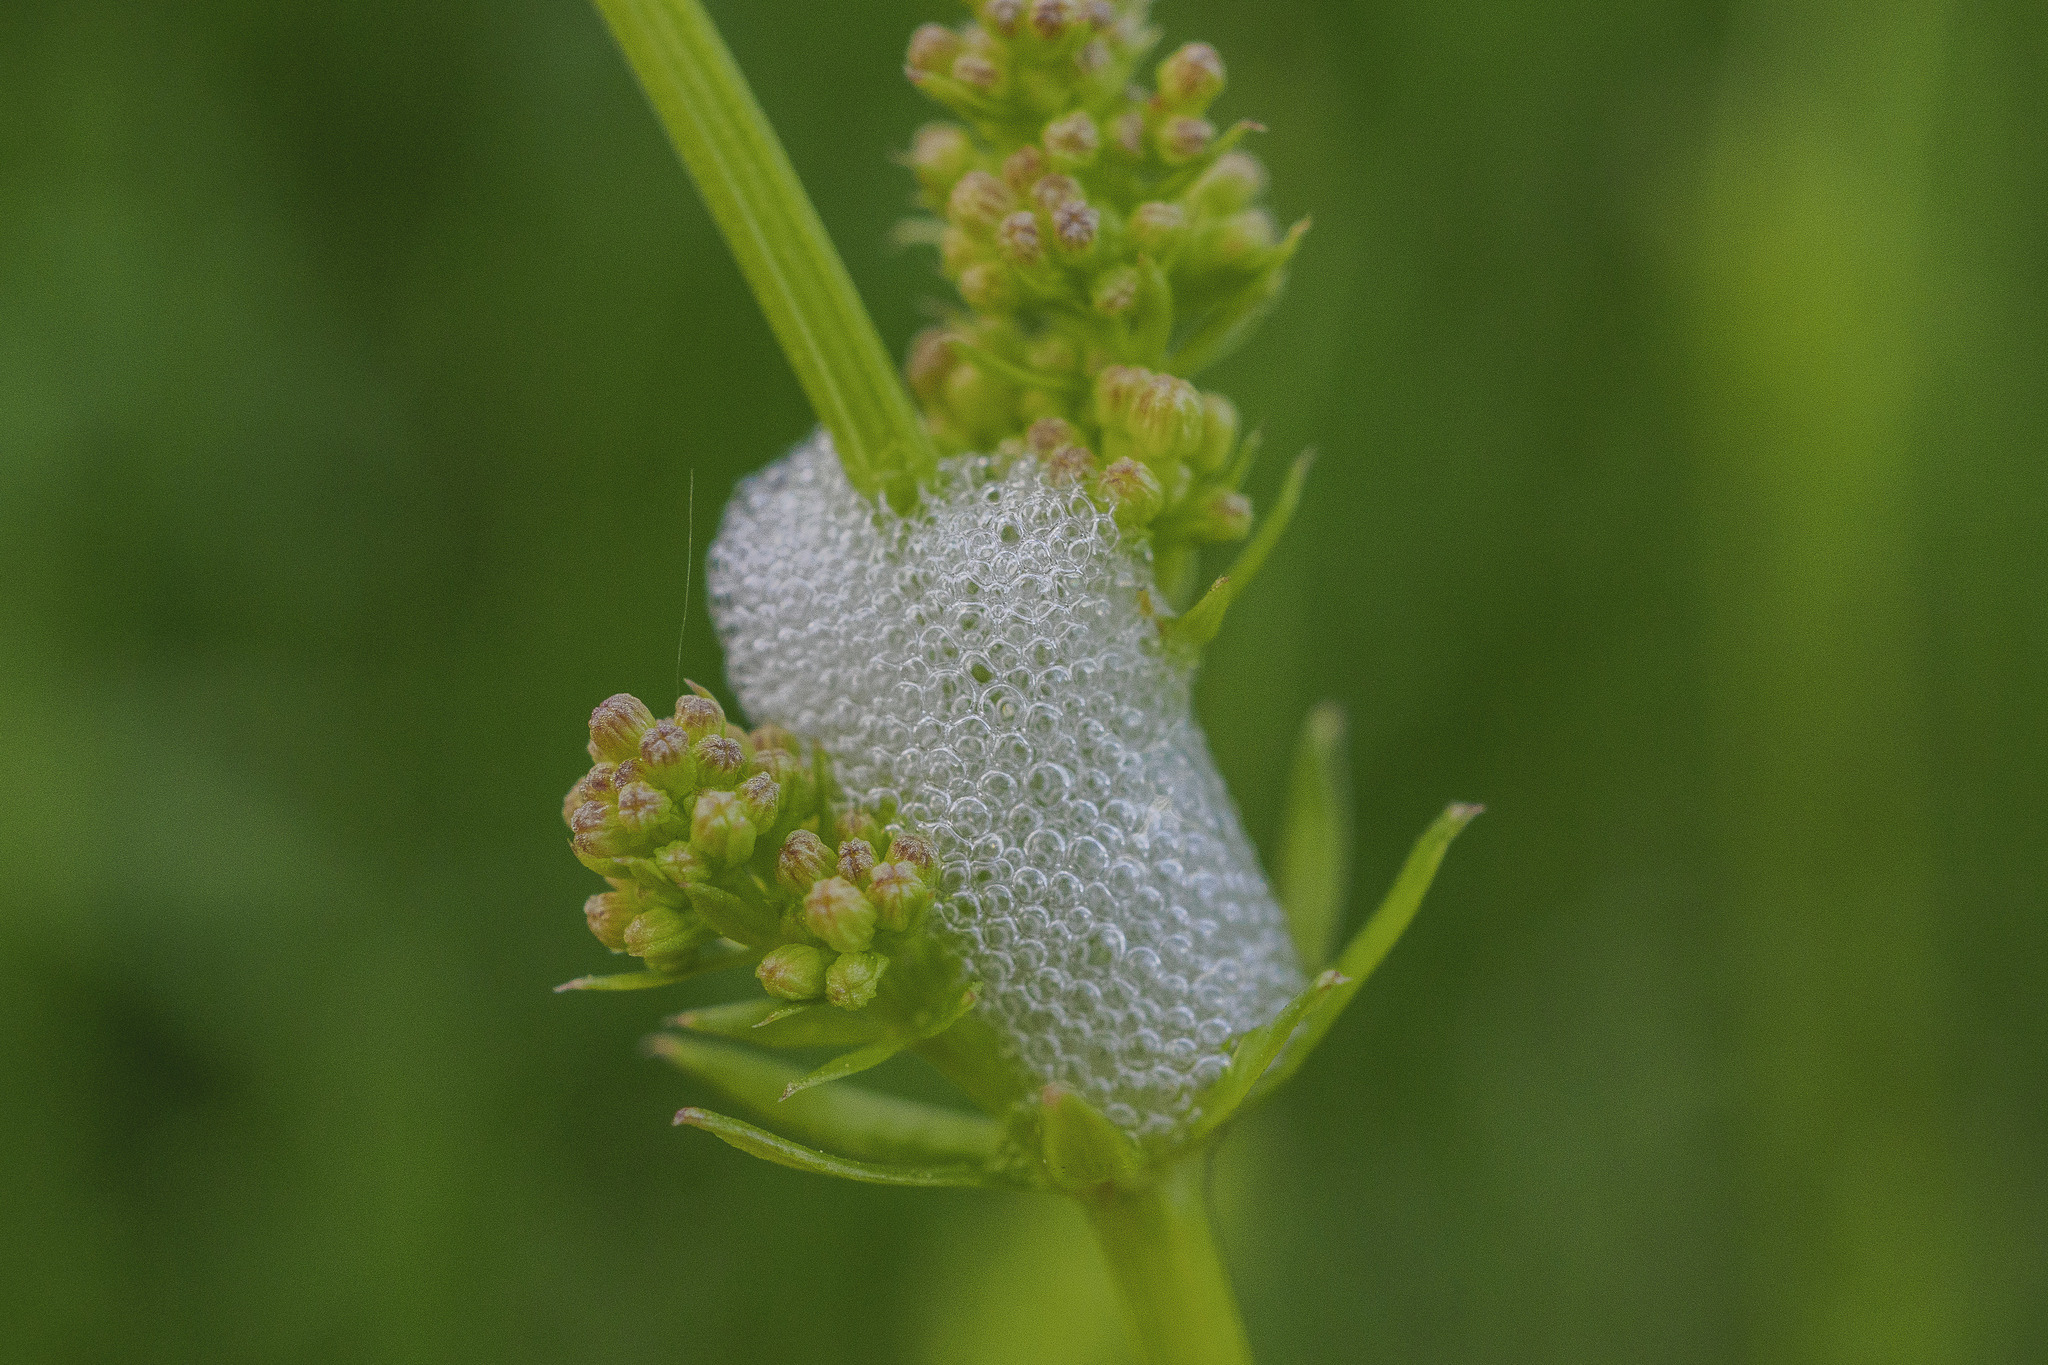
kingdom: Animalia
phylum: Arthropoda
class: Insecta
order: Hemiptera
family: Aphrophoridae
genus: Philaenus
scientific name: Philaenus spumarius
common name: Meadow spittlebug
